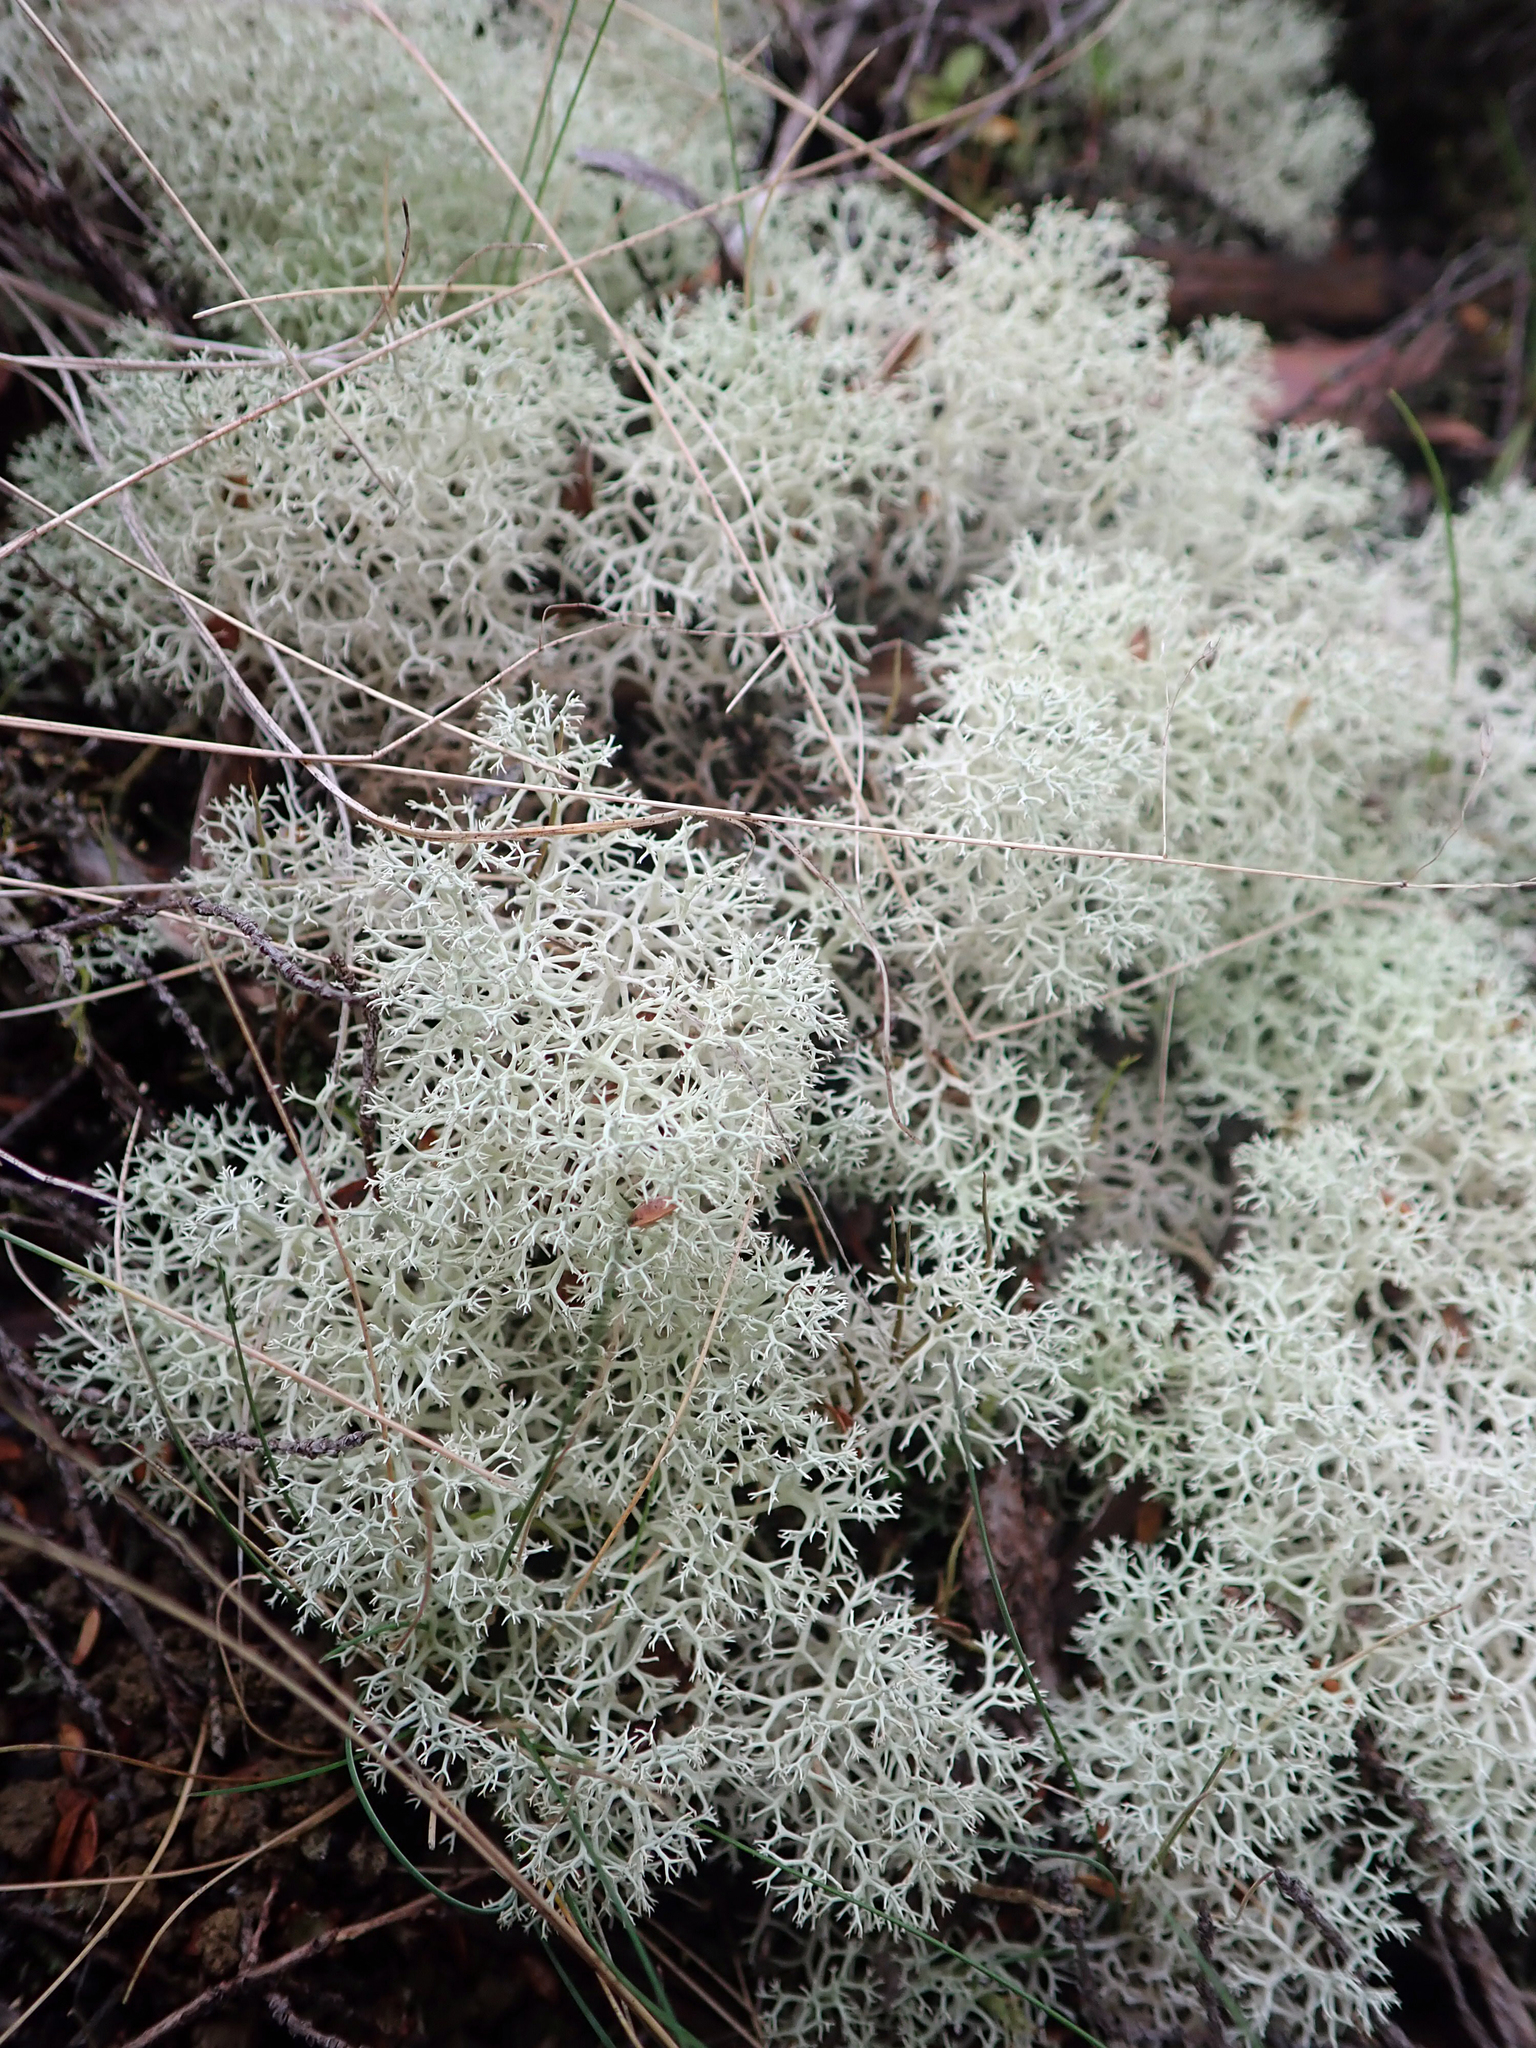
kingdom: Fungi
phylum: Ascomycota
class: Lecanoromycetes
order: Lecanorales
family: Cladoniaceae
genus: Cladonia
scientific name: Cladonia confusa
